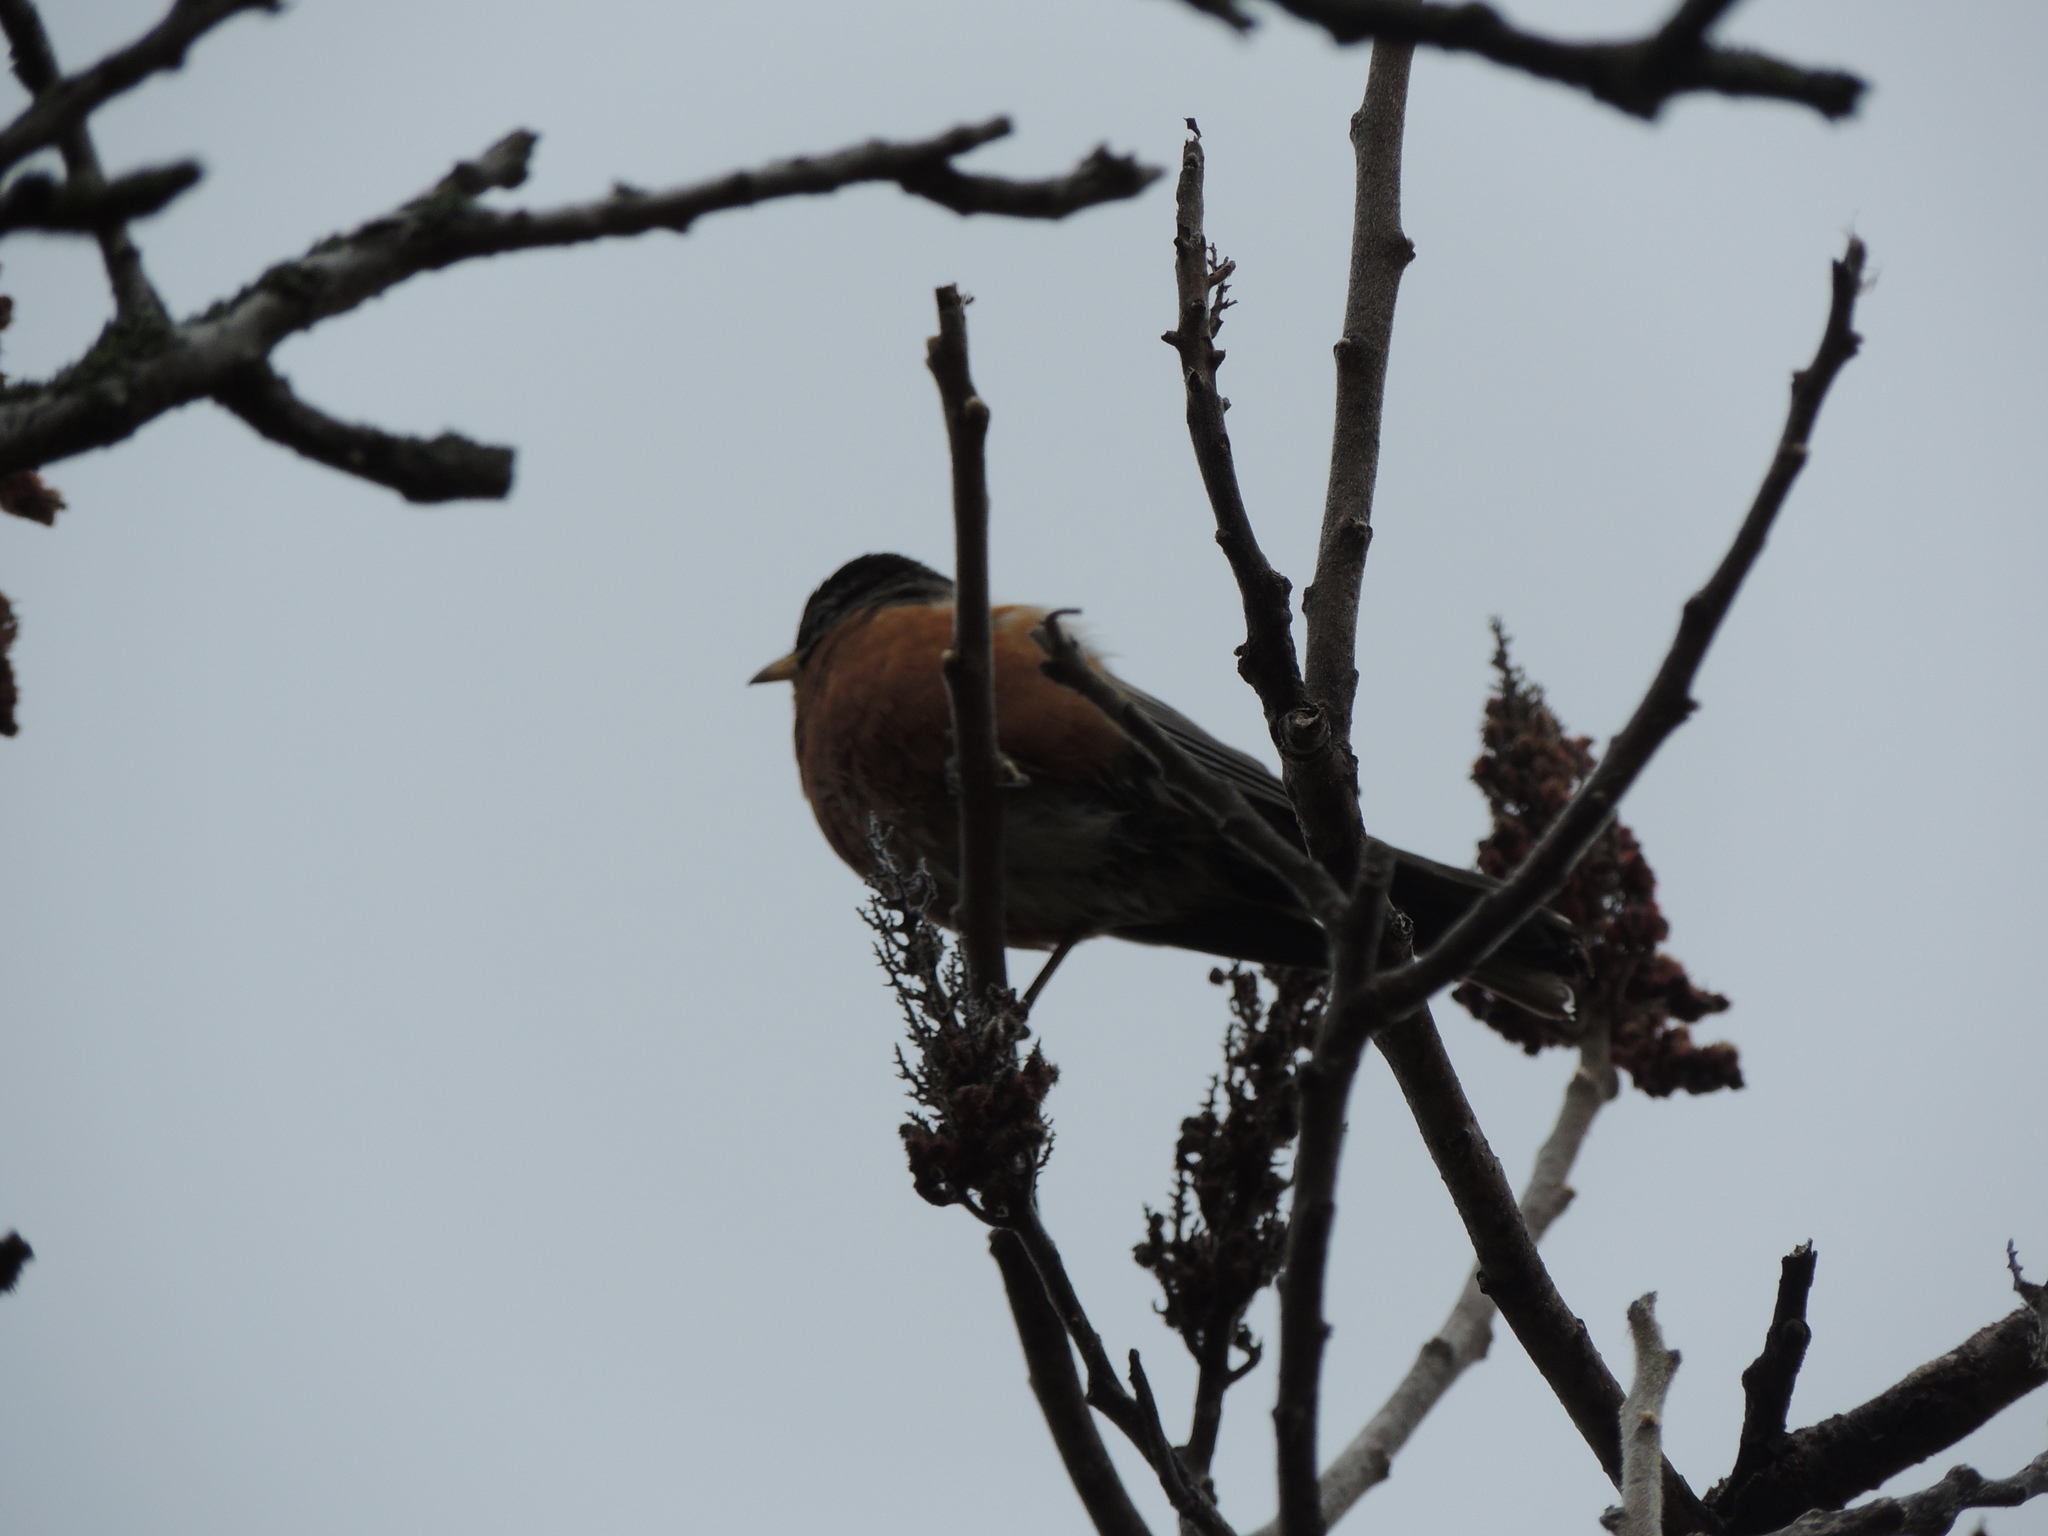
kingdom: Animalia
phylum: Chordata
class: Aves
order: Passeriformes
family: Turdidae
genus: Turdus
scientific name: Turdus migratorius
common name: American robin
